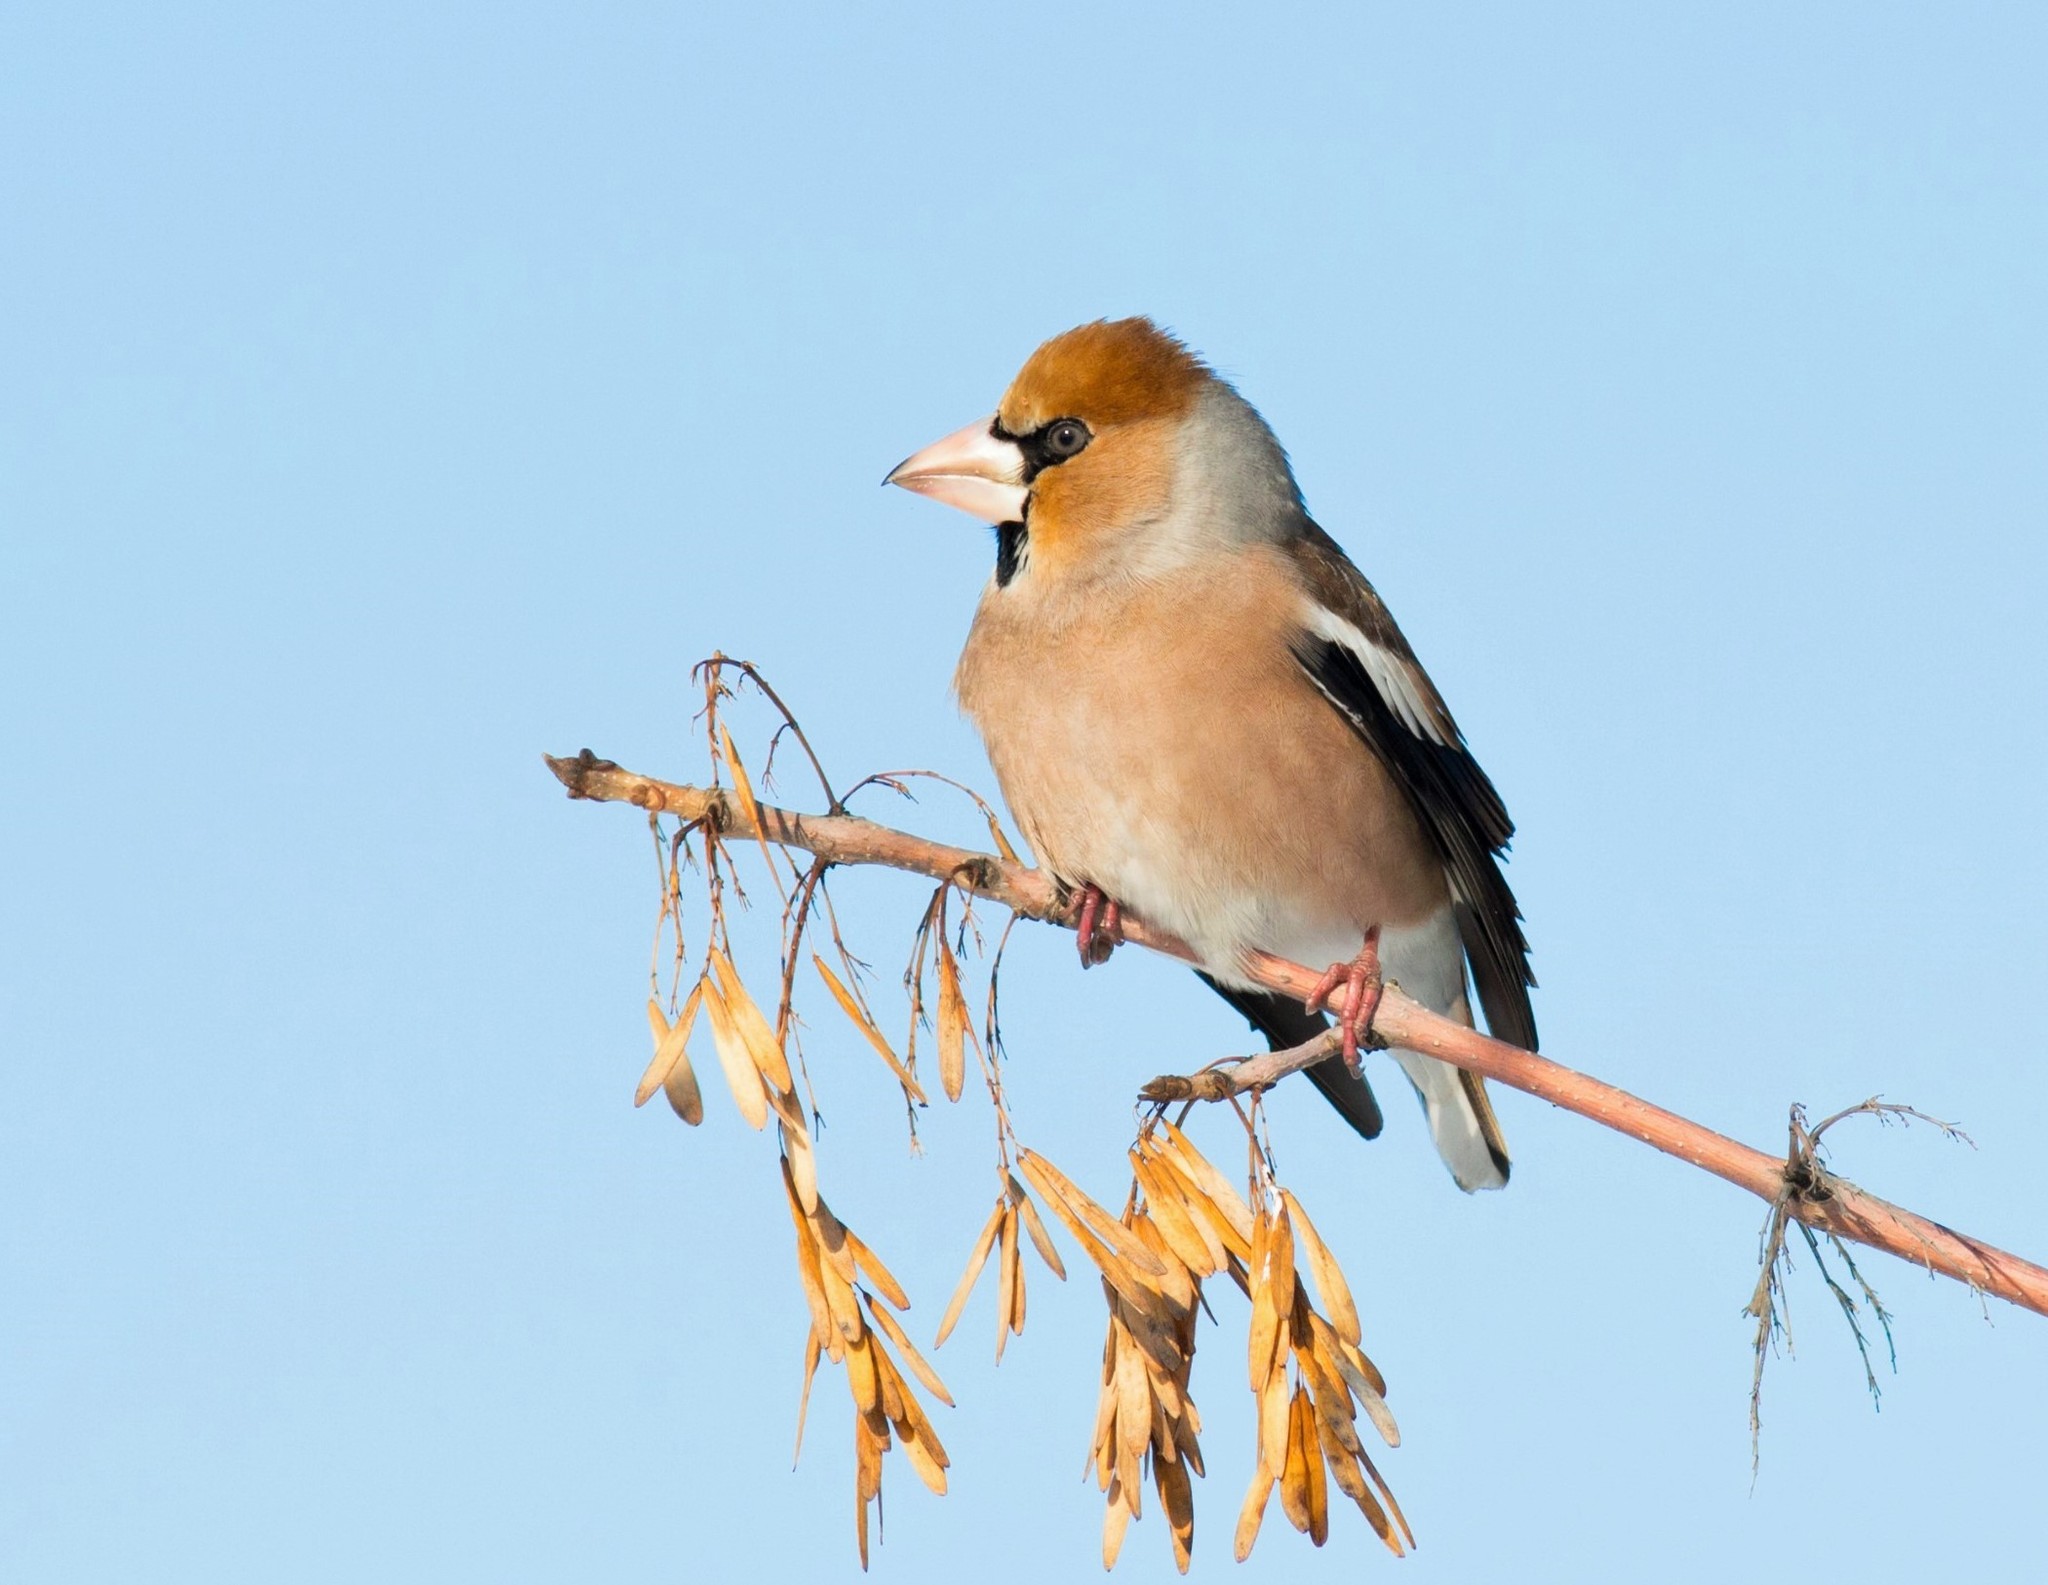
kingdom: Animalia
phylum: Chordata
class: Aves
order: Passeriformes
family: Fringillidae
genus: Coccothraustes
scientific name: Coccothraustes coccothraustes
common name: Hawfinch
